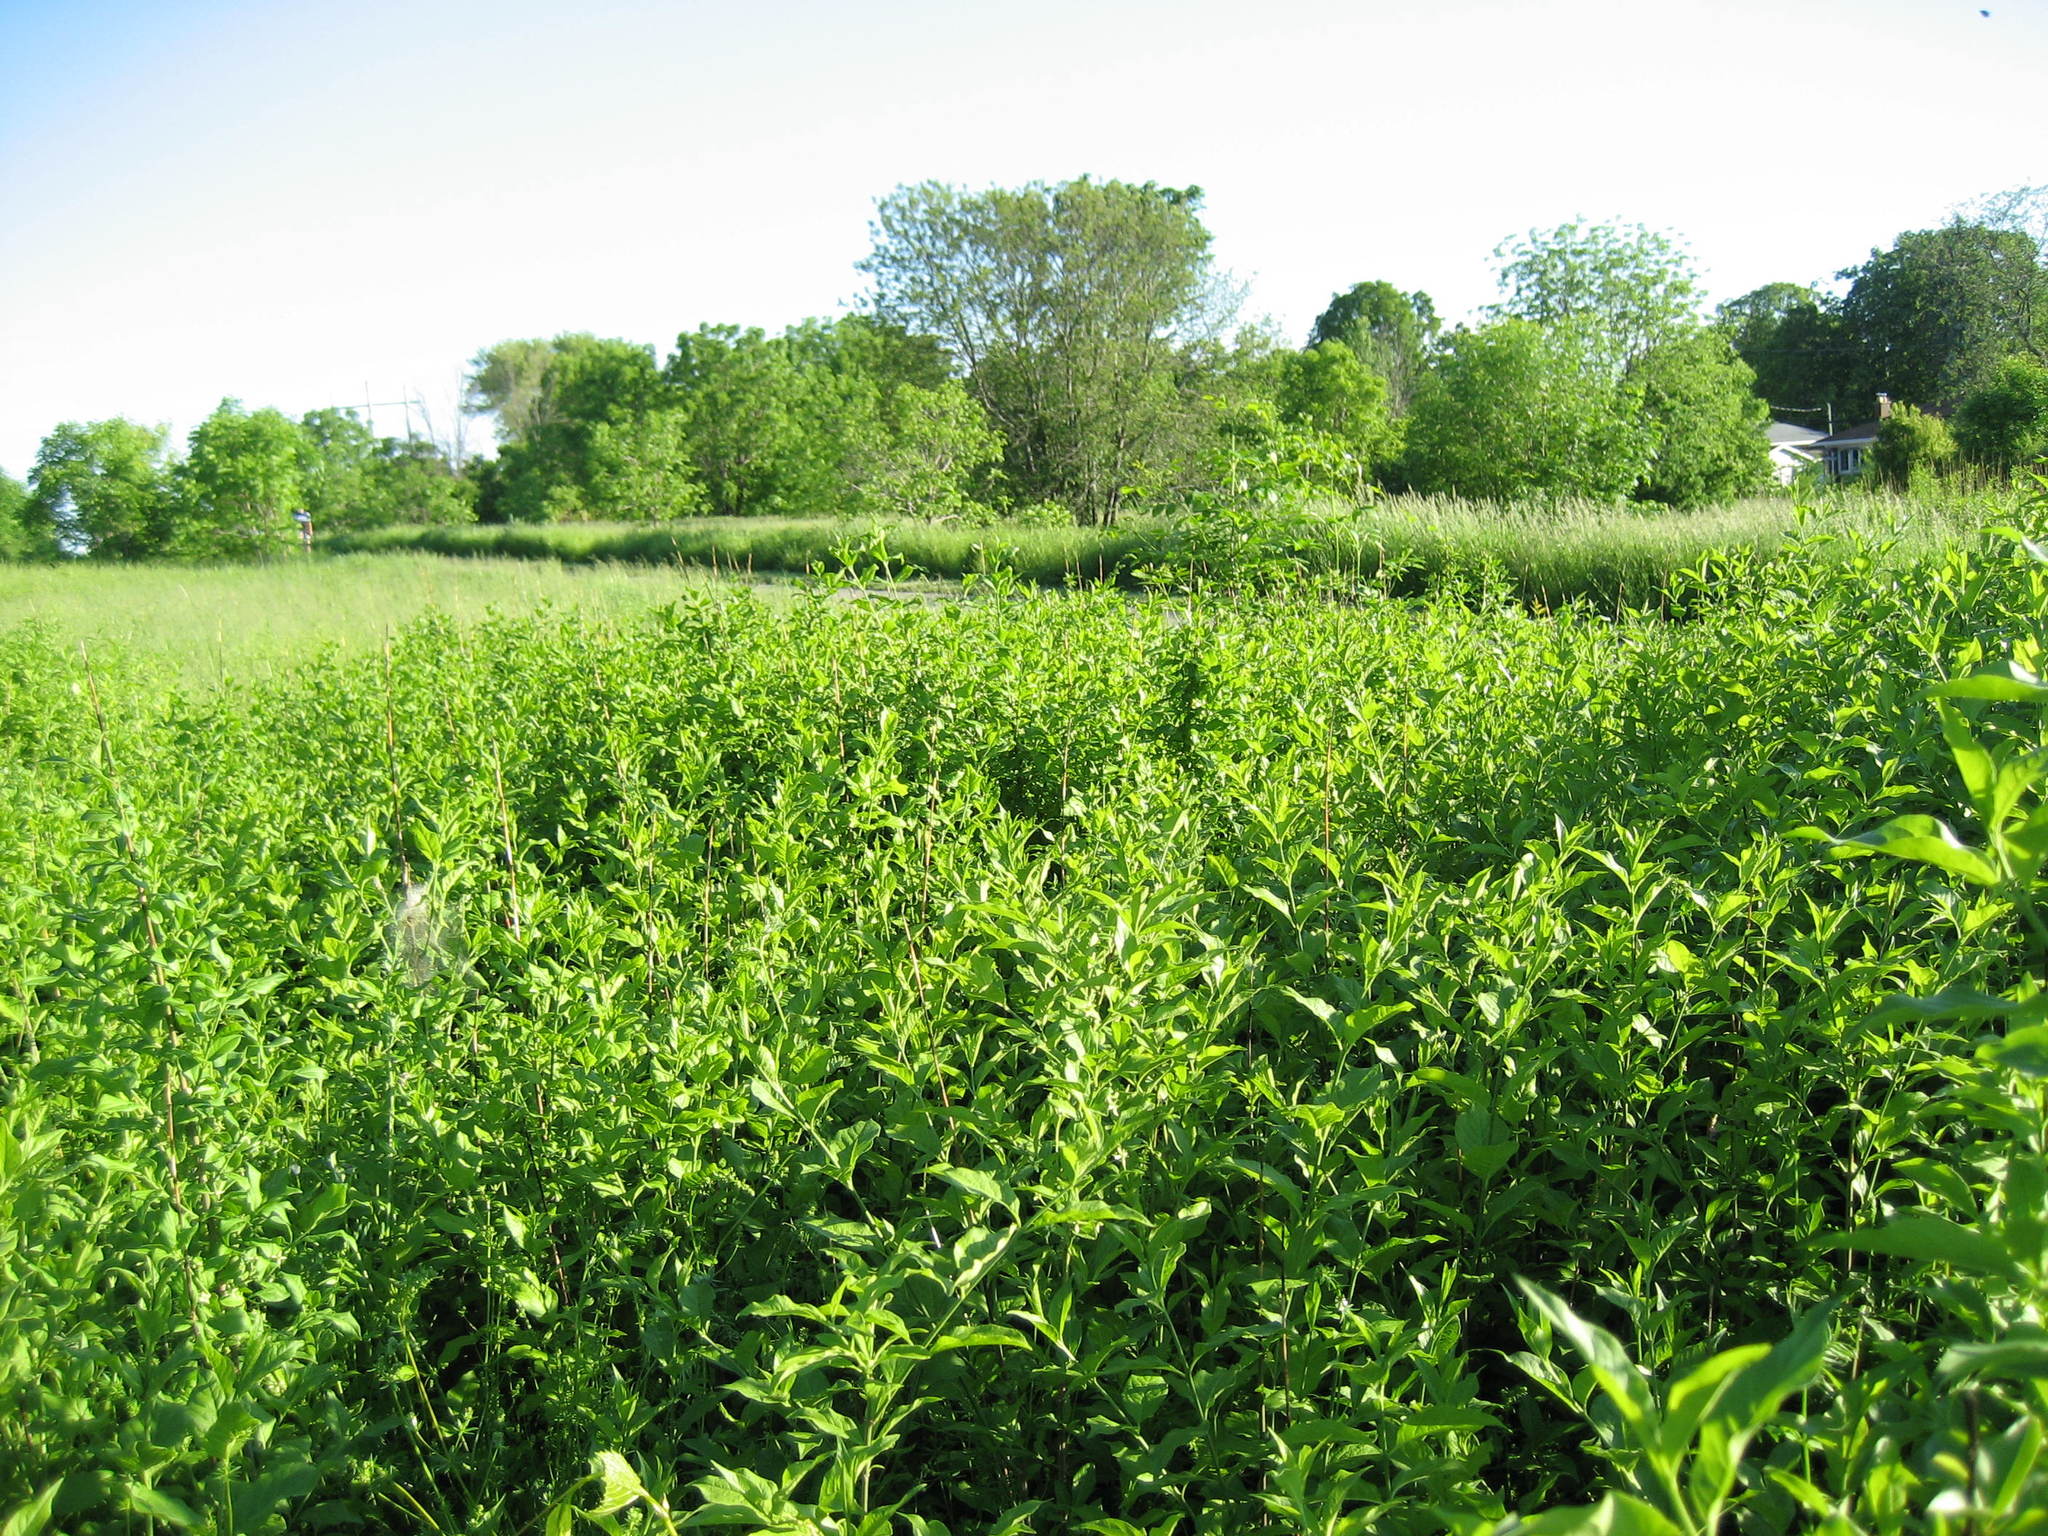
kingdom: Plantae
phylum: Tracheophyta
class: Magnoliopsida
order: Celastrales
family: Celastraceae
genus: Euonymus
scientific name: Euonymus europaeus
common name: Spindle
